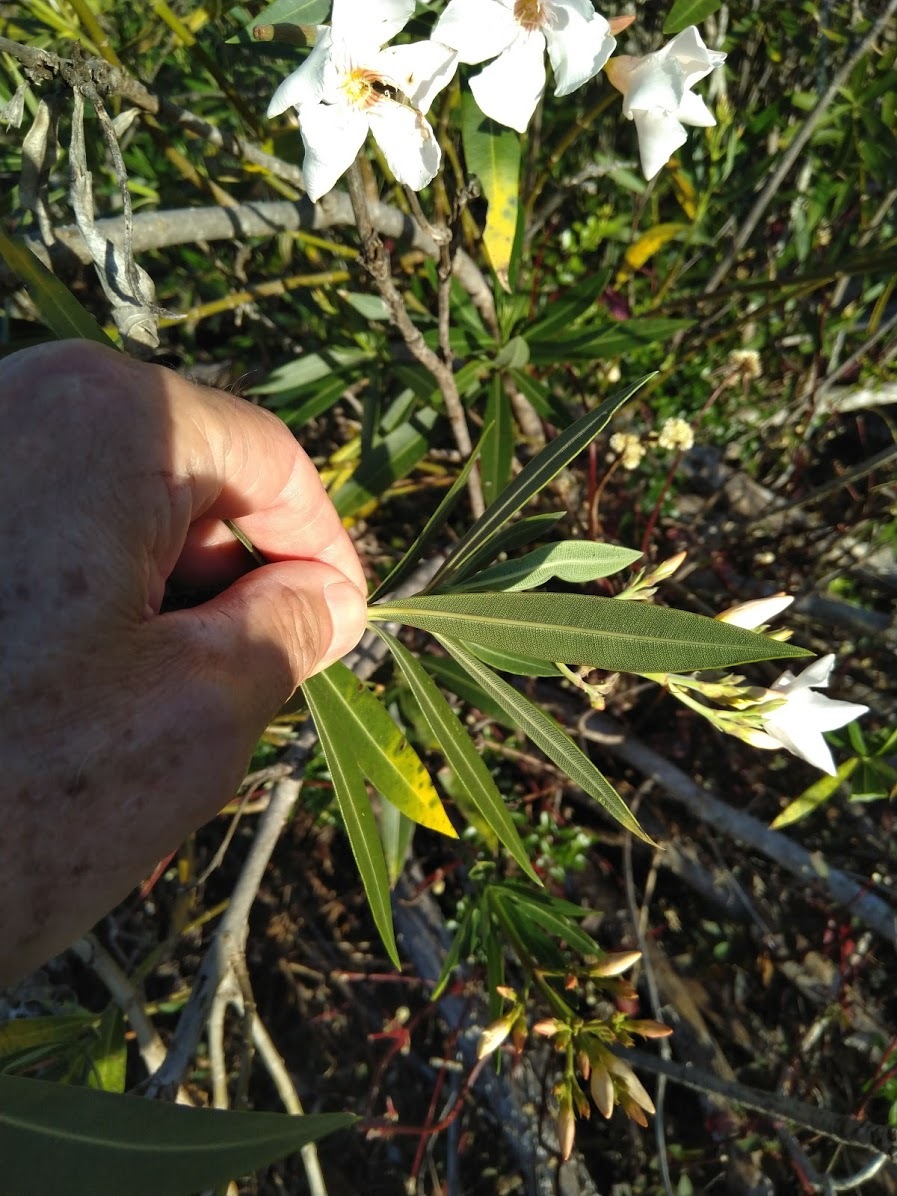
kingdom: Plantae
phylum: Tracheophyta
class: Magnoliopsida
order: Gentianales
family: Apocynaceae
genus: Nerium
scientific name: Nerium oleander
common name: Oleander
